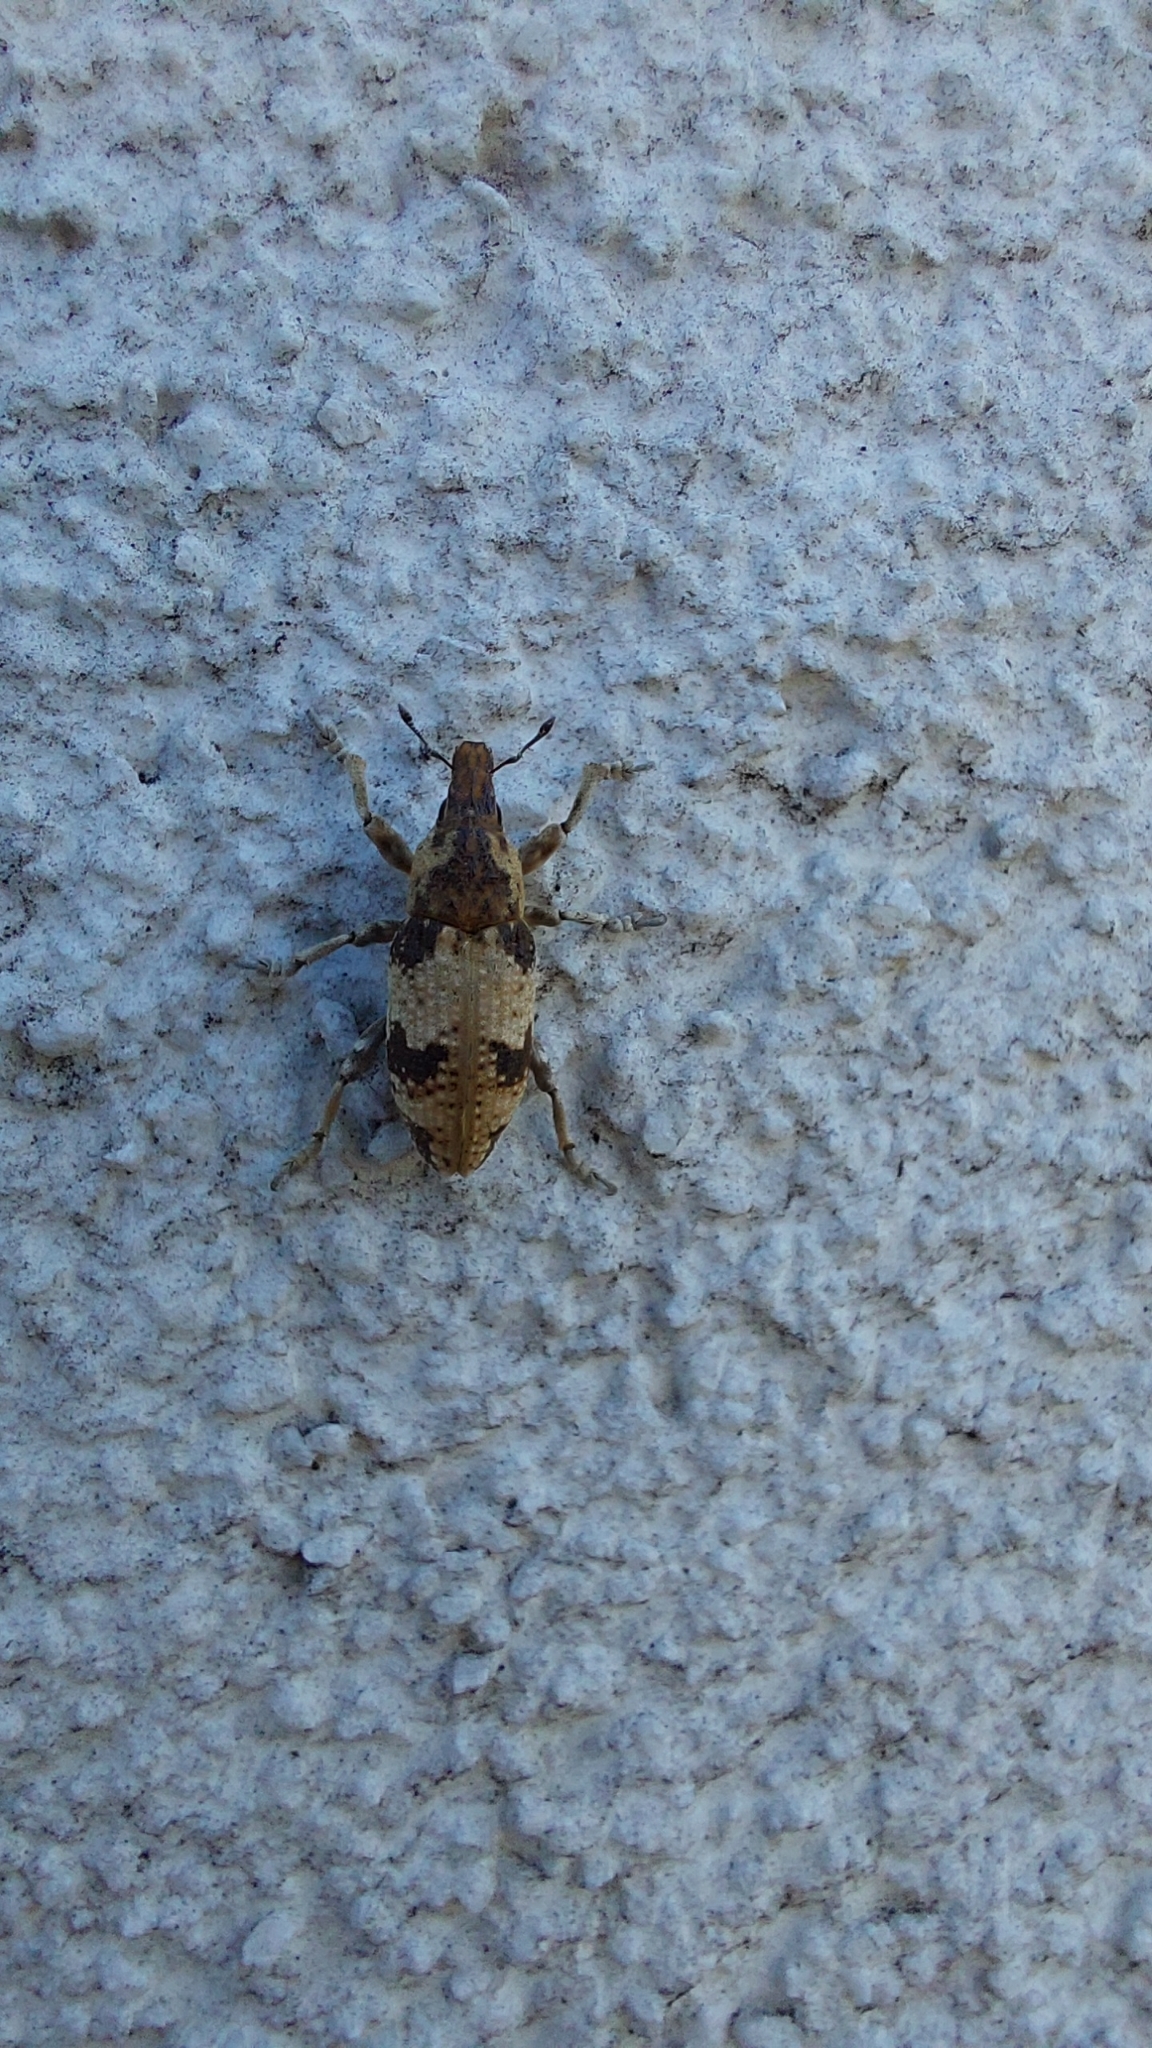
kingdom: Animalia
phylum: Arthropoda
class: Insecta
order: Coleoptera
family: Curculionidae
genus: Bothynoderes
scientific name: Bothynoderes affinis
